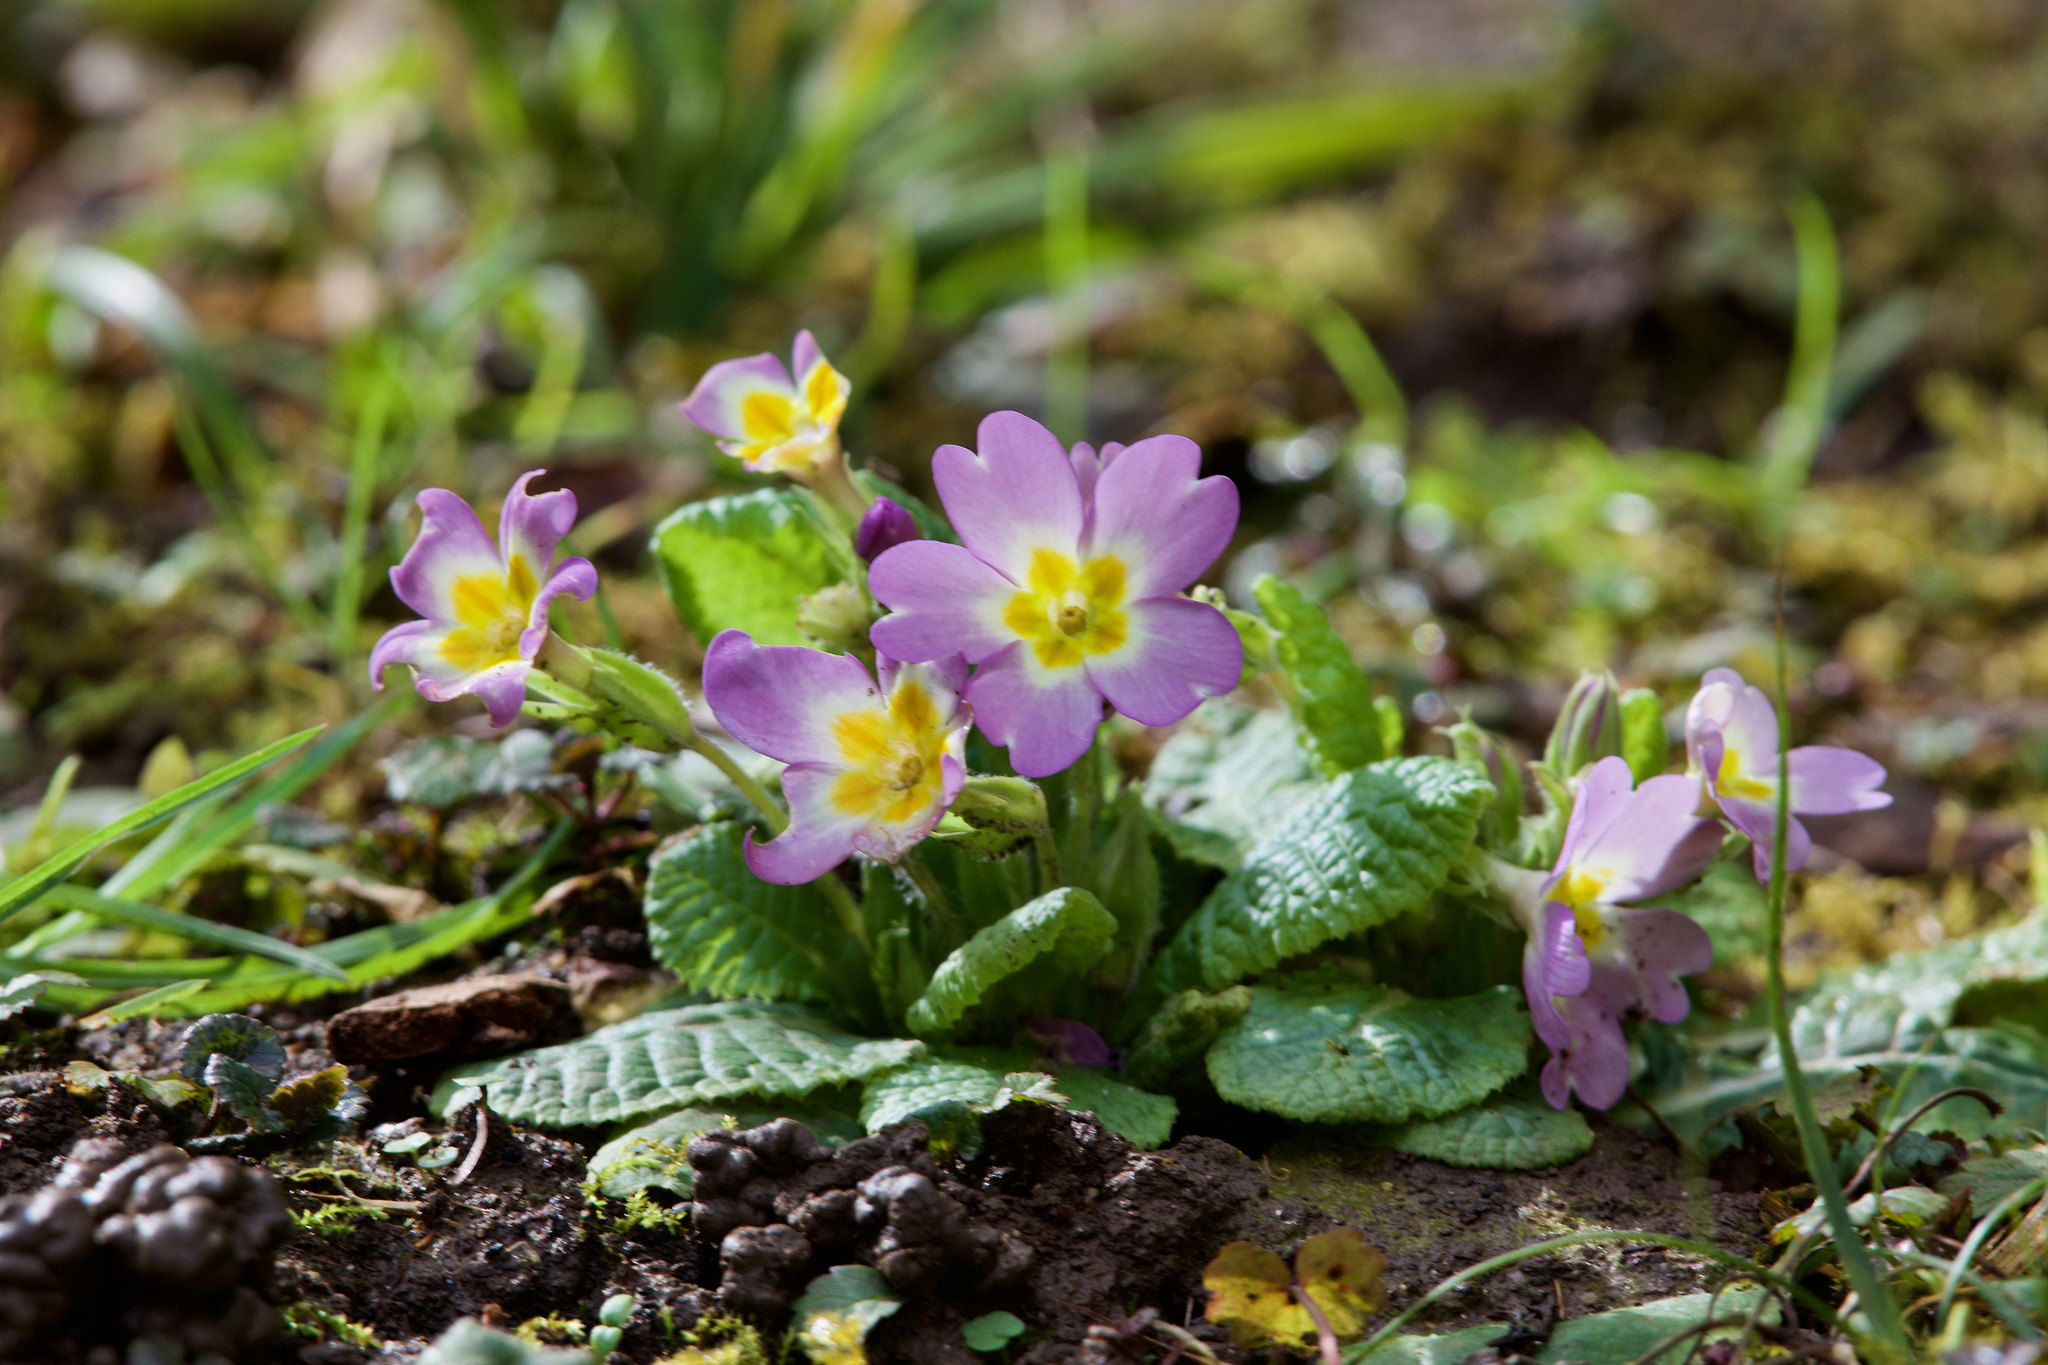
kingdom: Plantae
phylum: Tracheophyta
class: Magnoliopsida
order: Ericales
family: Primulaceae
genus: Primula
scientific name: Primula vulgaris
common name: Primrose
